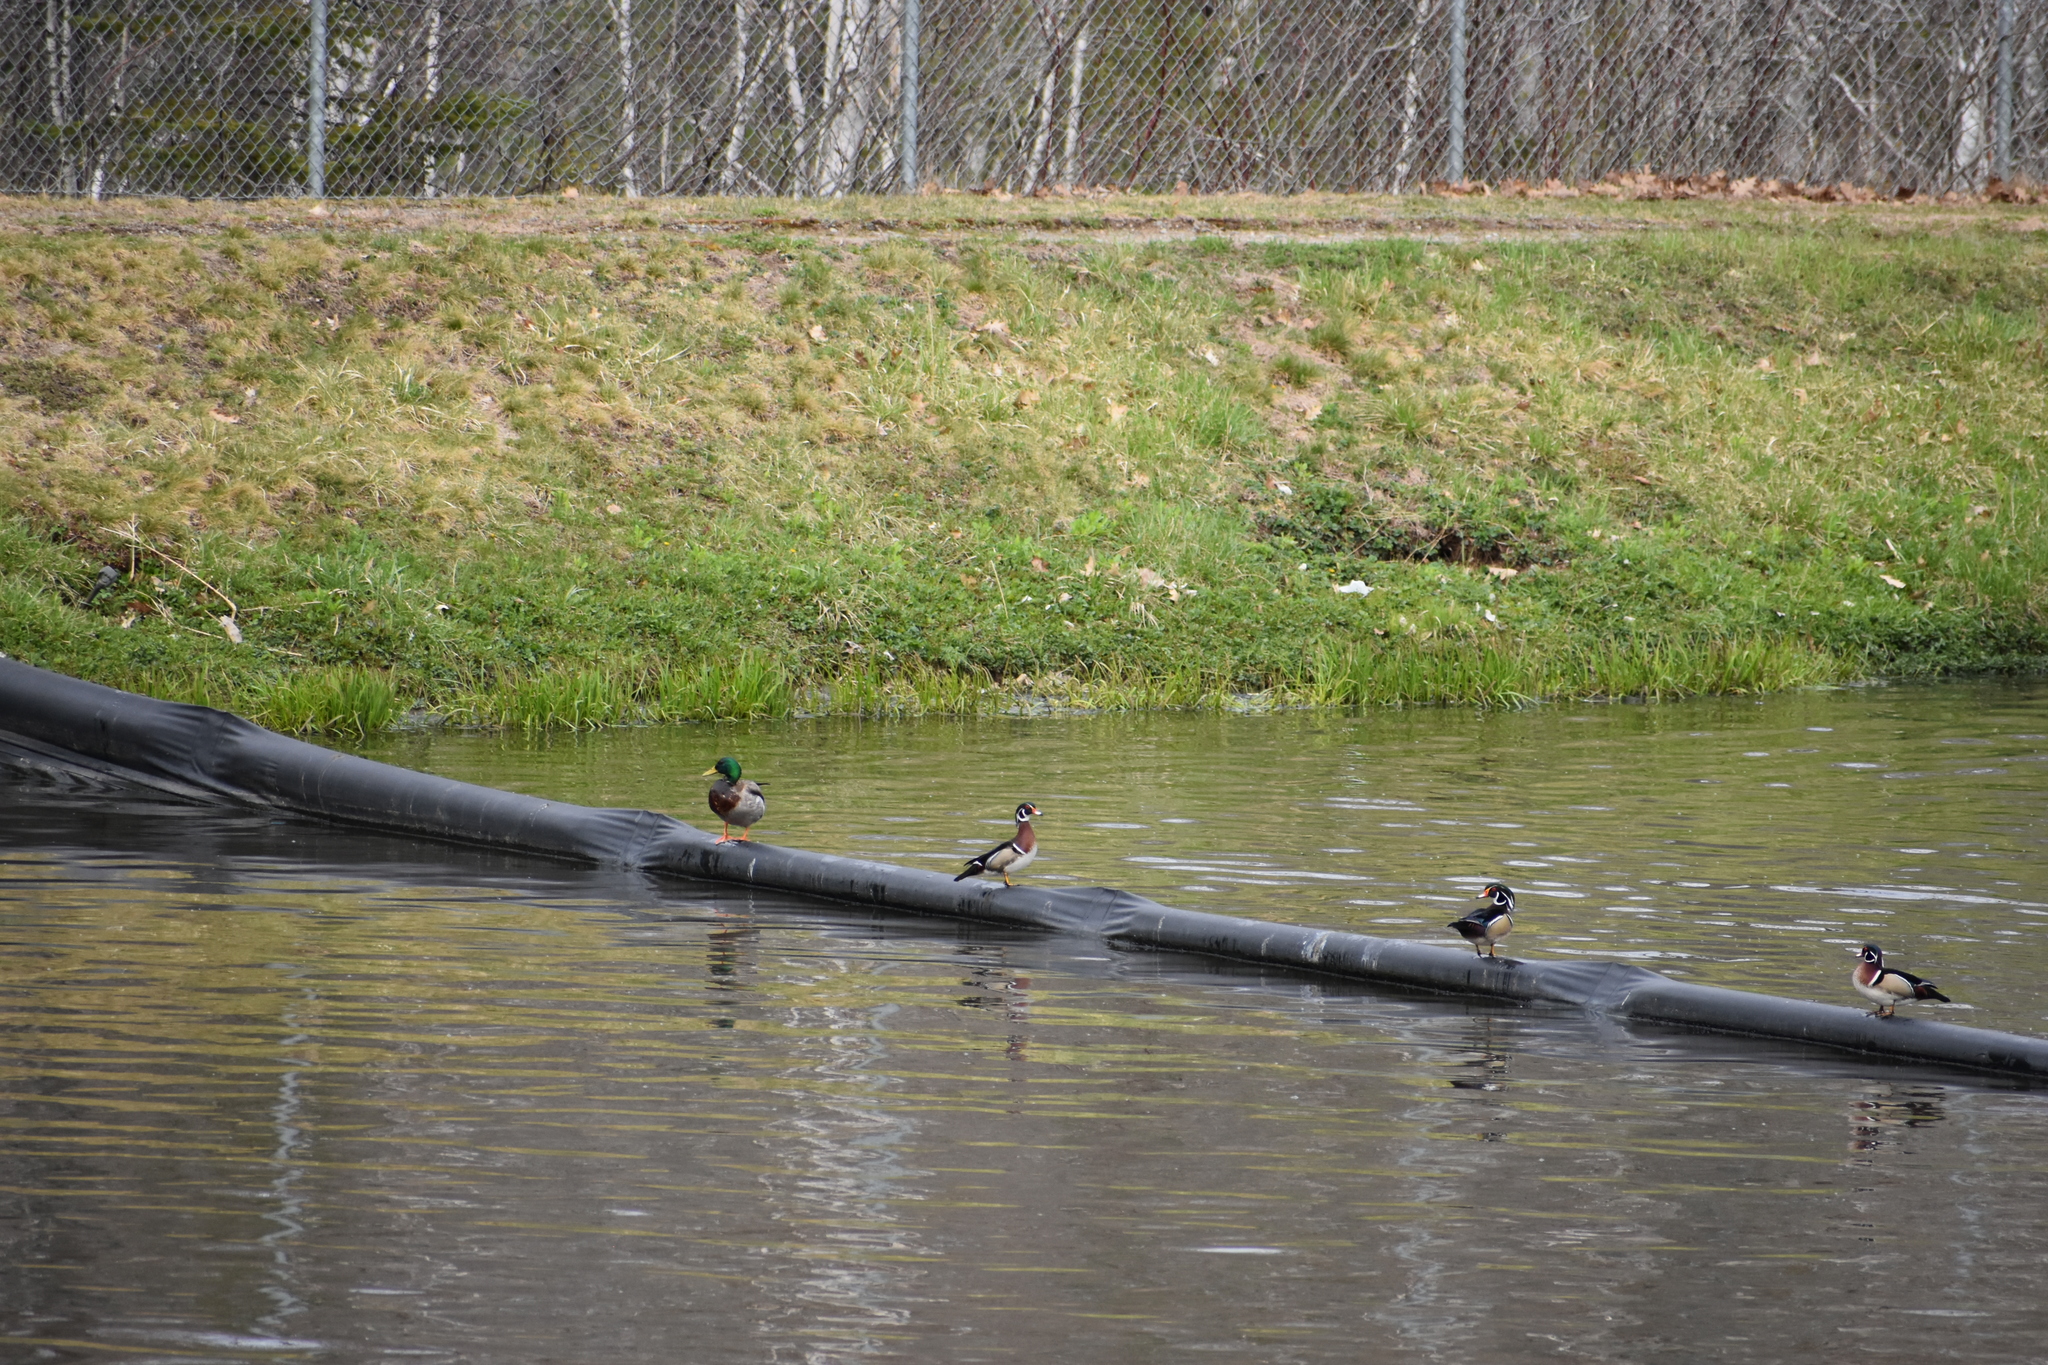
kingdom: Animalia
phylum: Chordata
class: Aves
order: Anseriformes
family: Anatidae
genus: Aix
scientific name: Aix sponsa
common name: Wood duck
